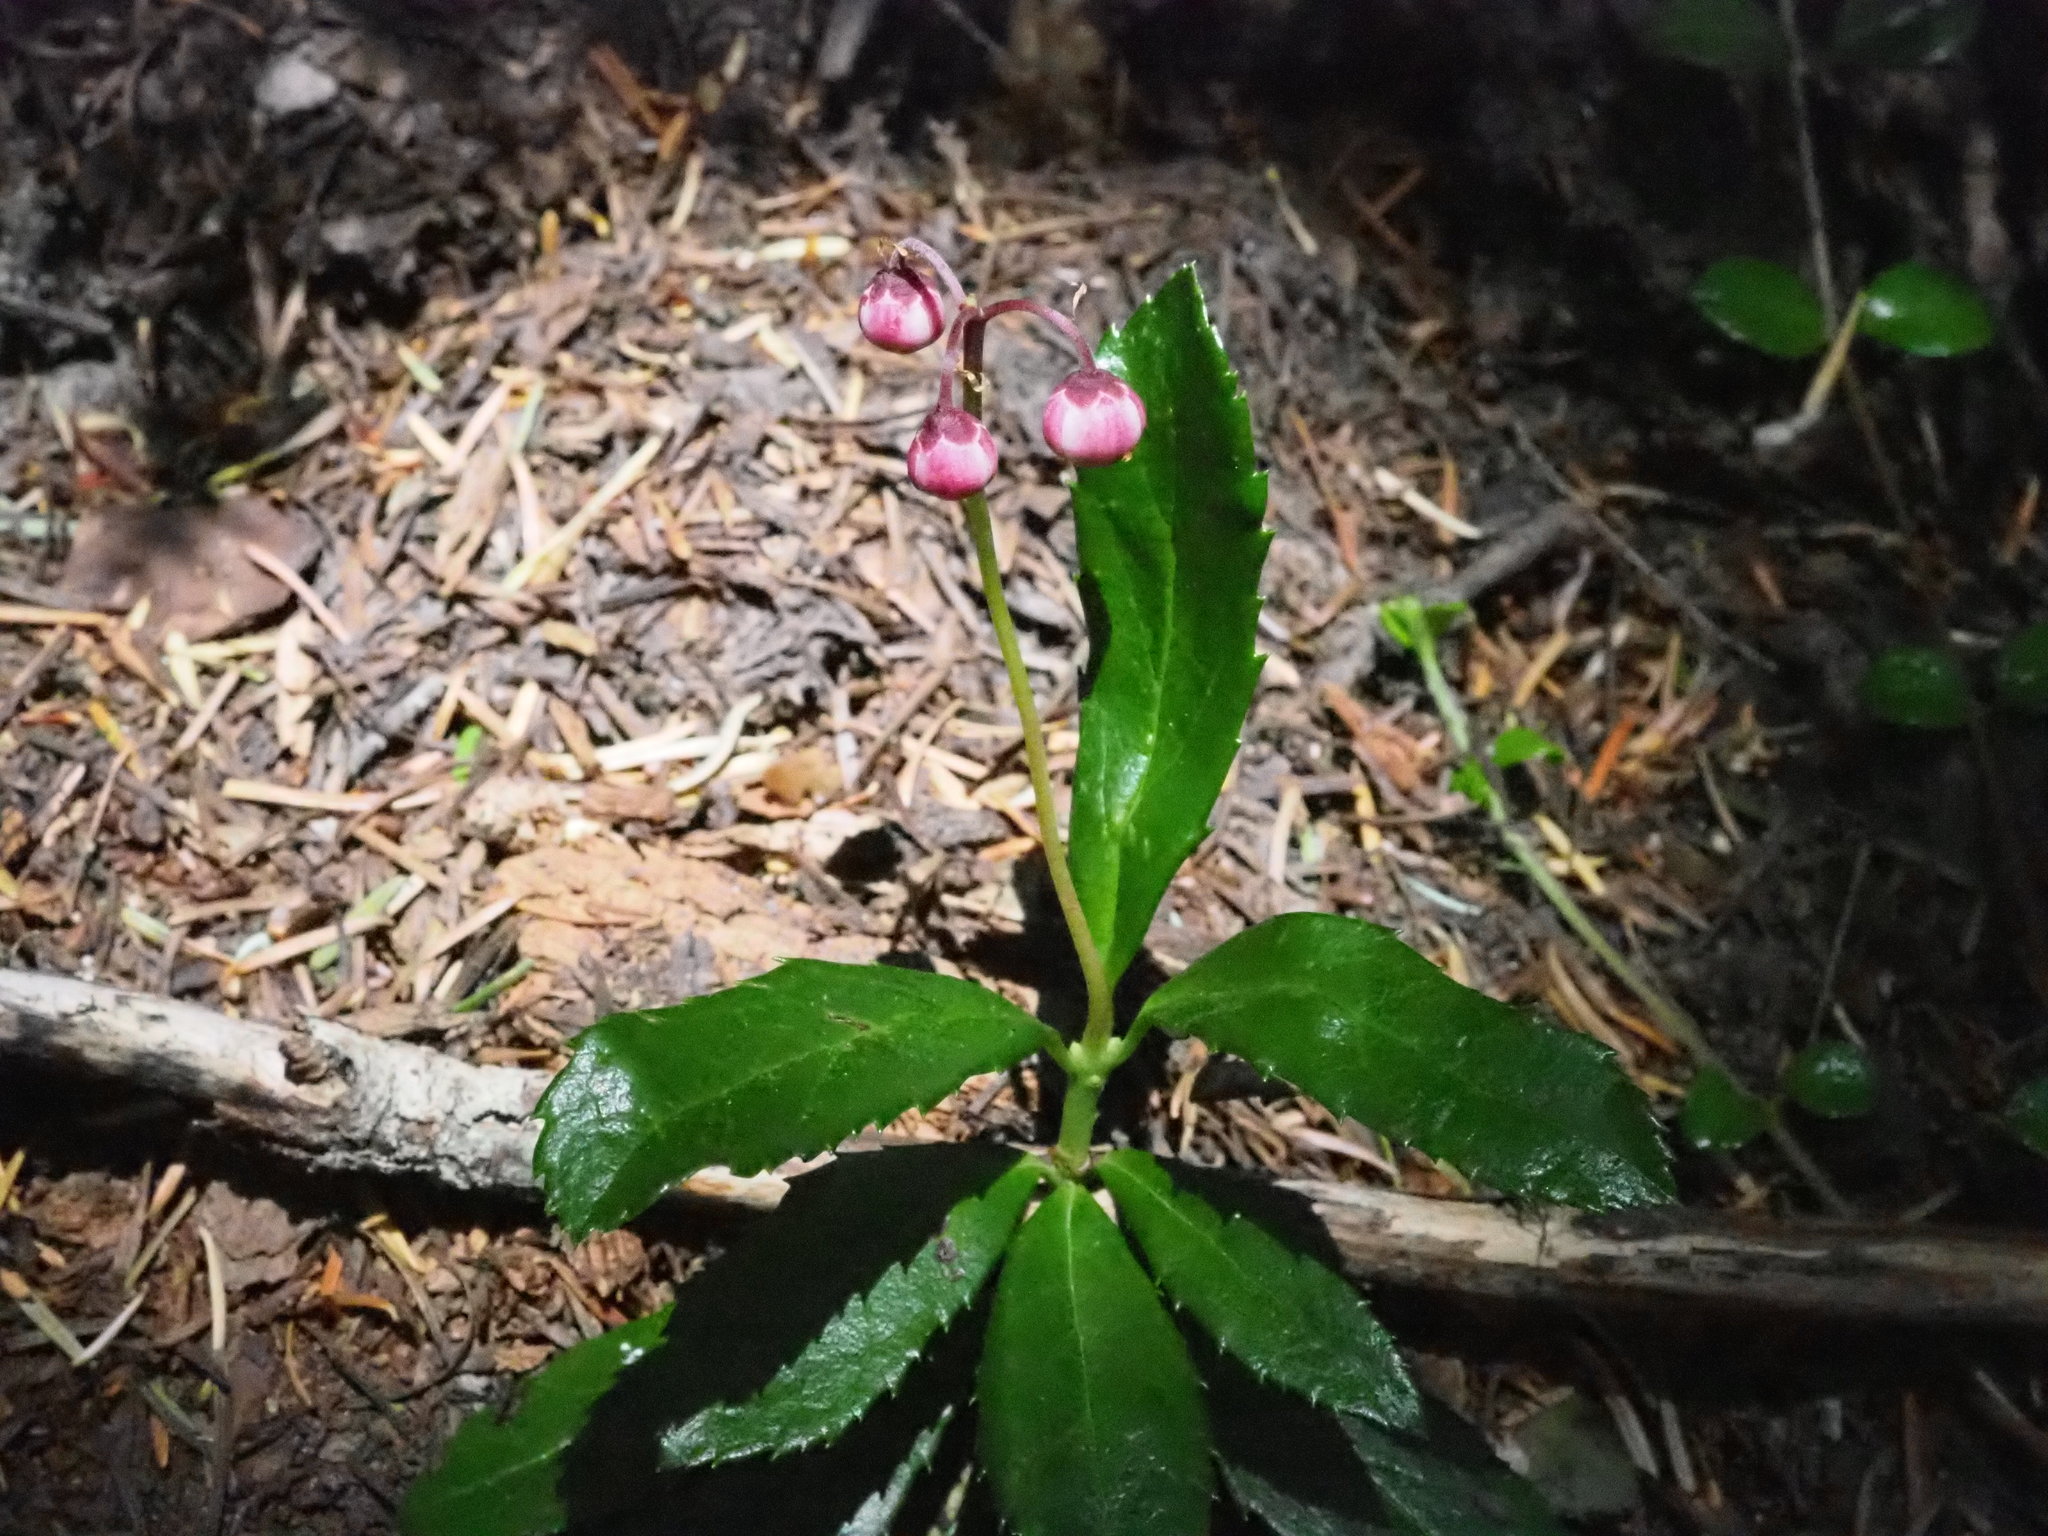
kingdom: Plantae
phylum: Tracheophyta
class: Magnoliopsida
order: Ericales
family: Ericaceae
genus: Chimaphila
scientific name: Chimaphila umbellata
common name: Pipsissewa
